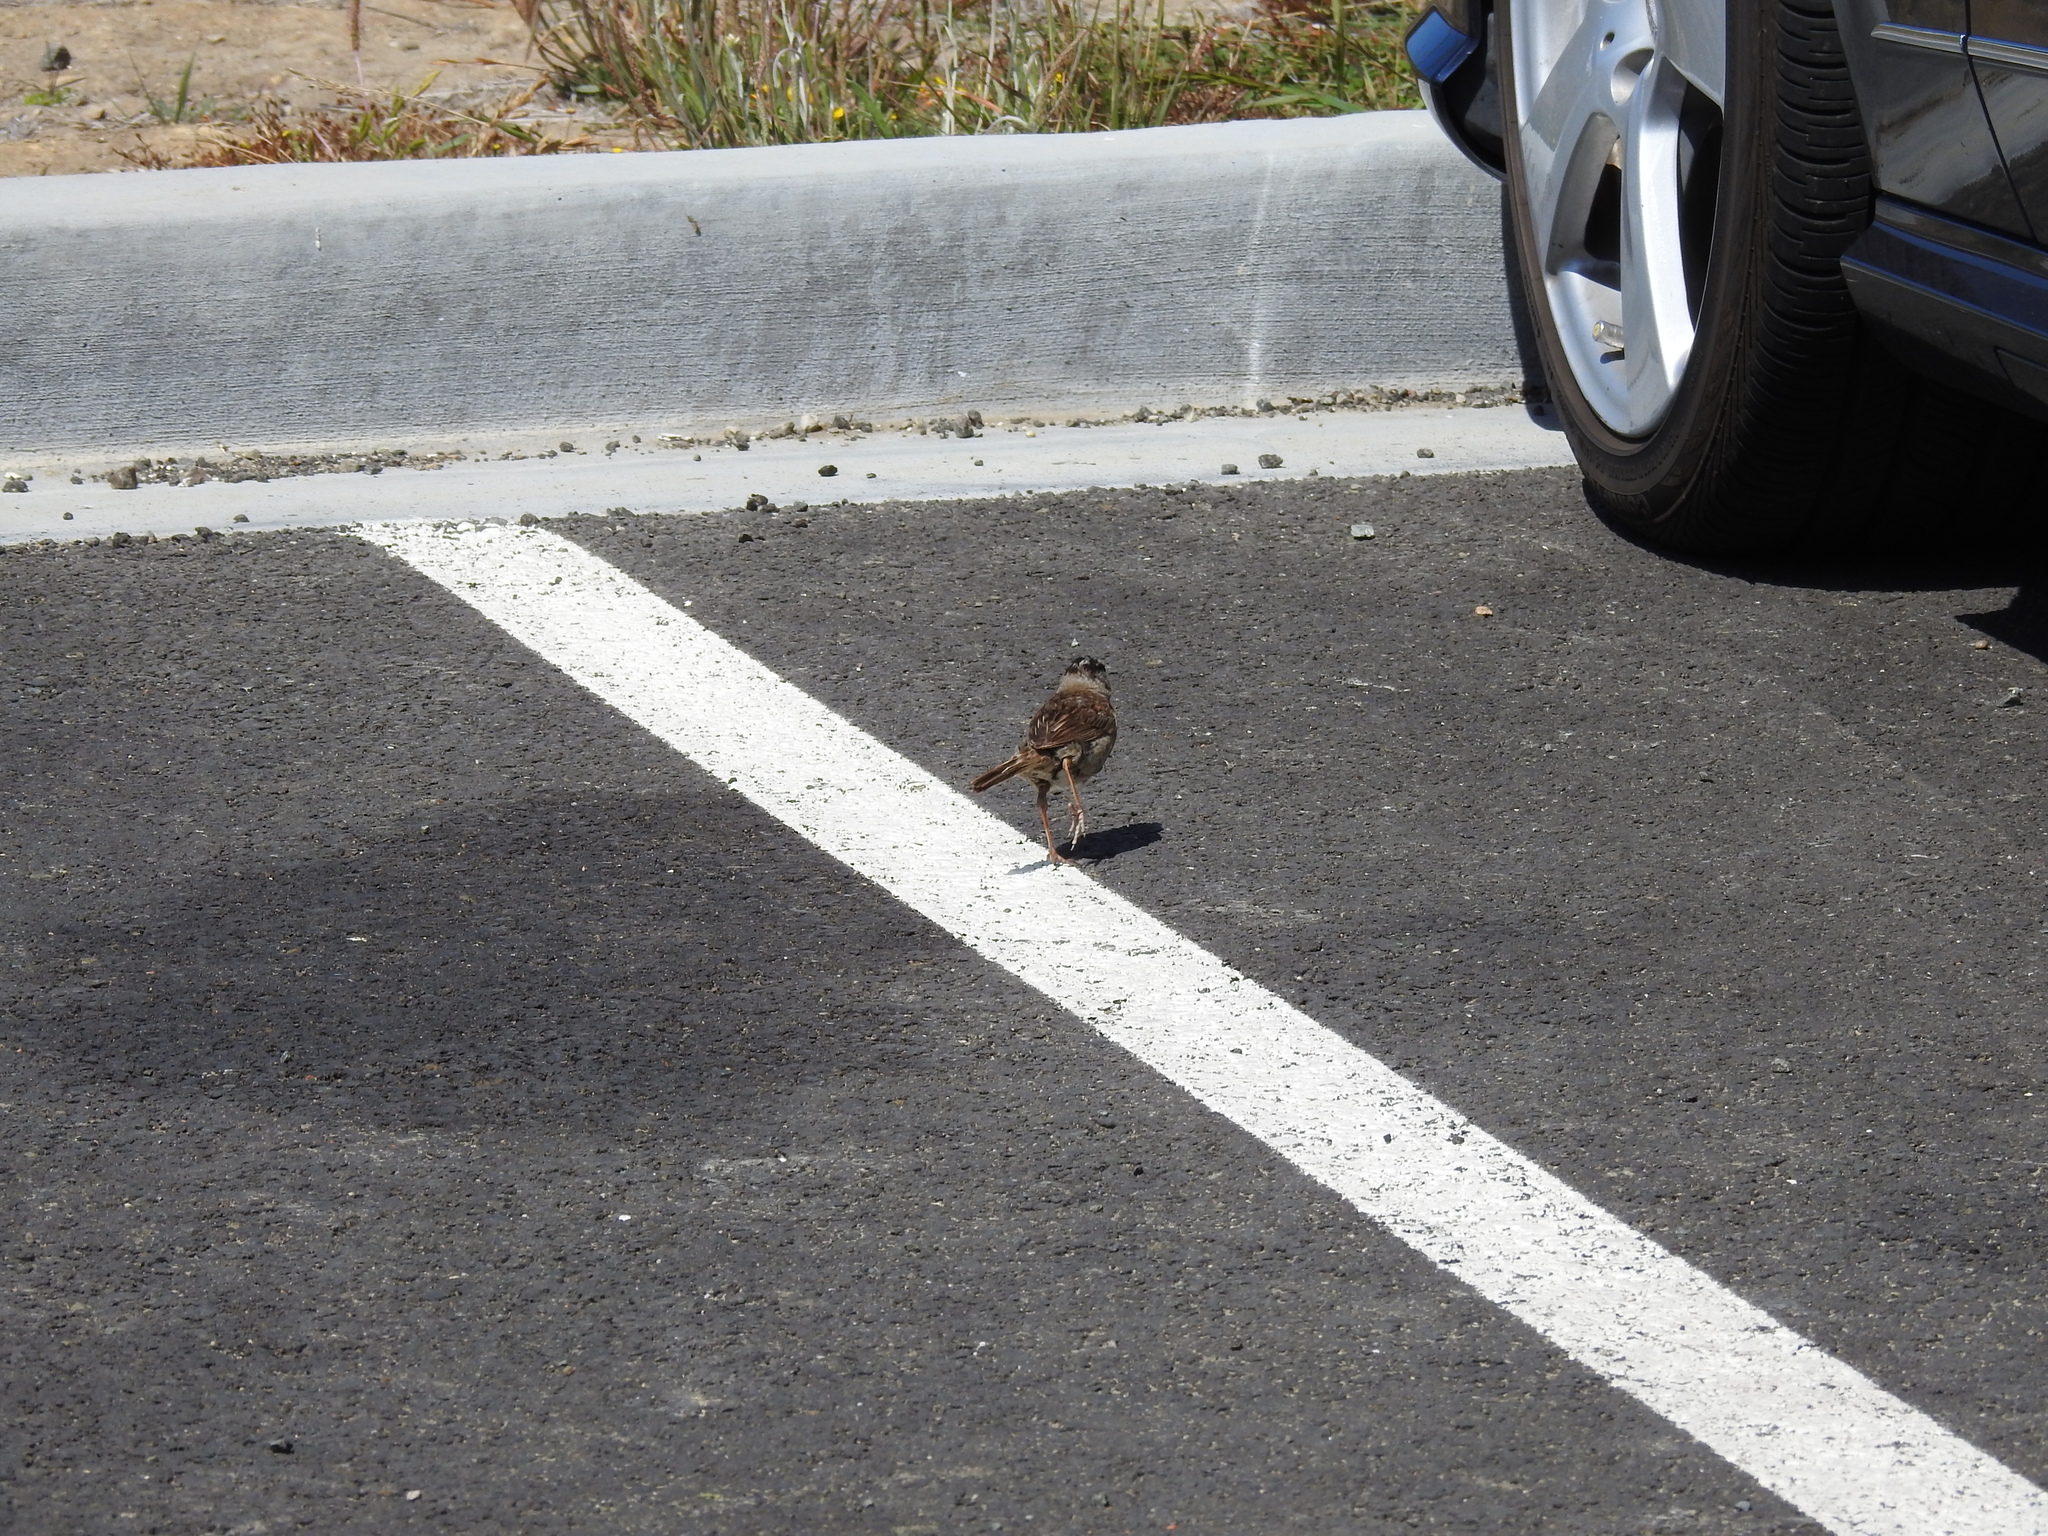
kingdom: Animalia
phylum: Chordata
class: Aves
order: Passeriformes
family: Passerellidae
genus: Zonotrichia
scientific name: Zonotrichia leucophrys
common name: White-crowned sparrow
